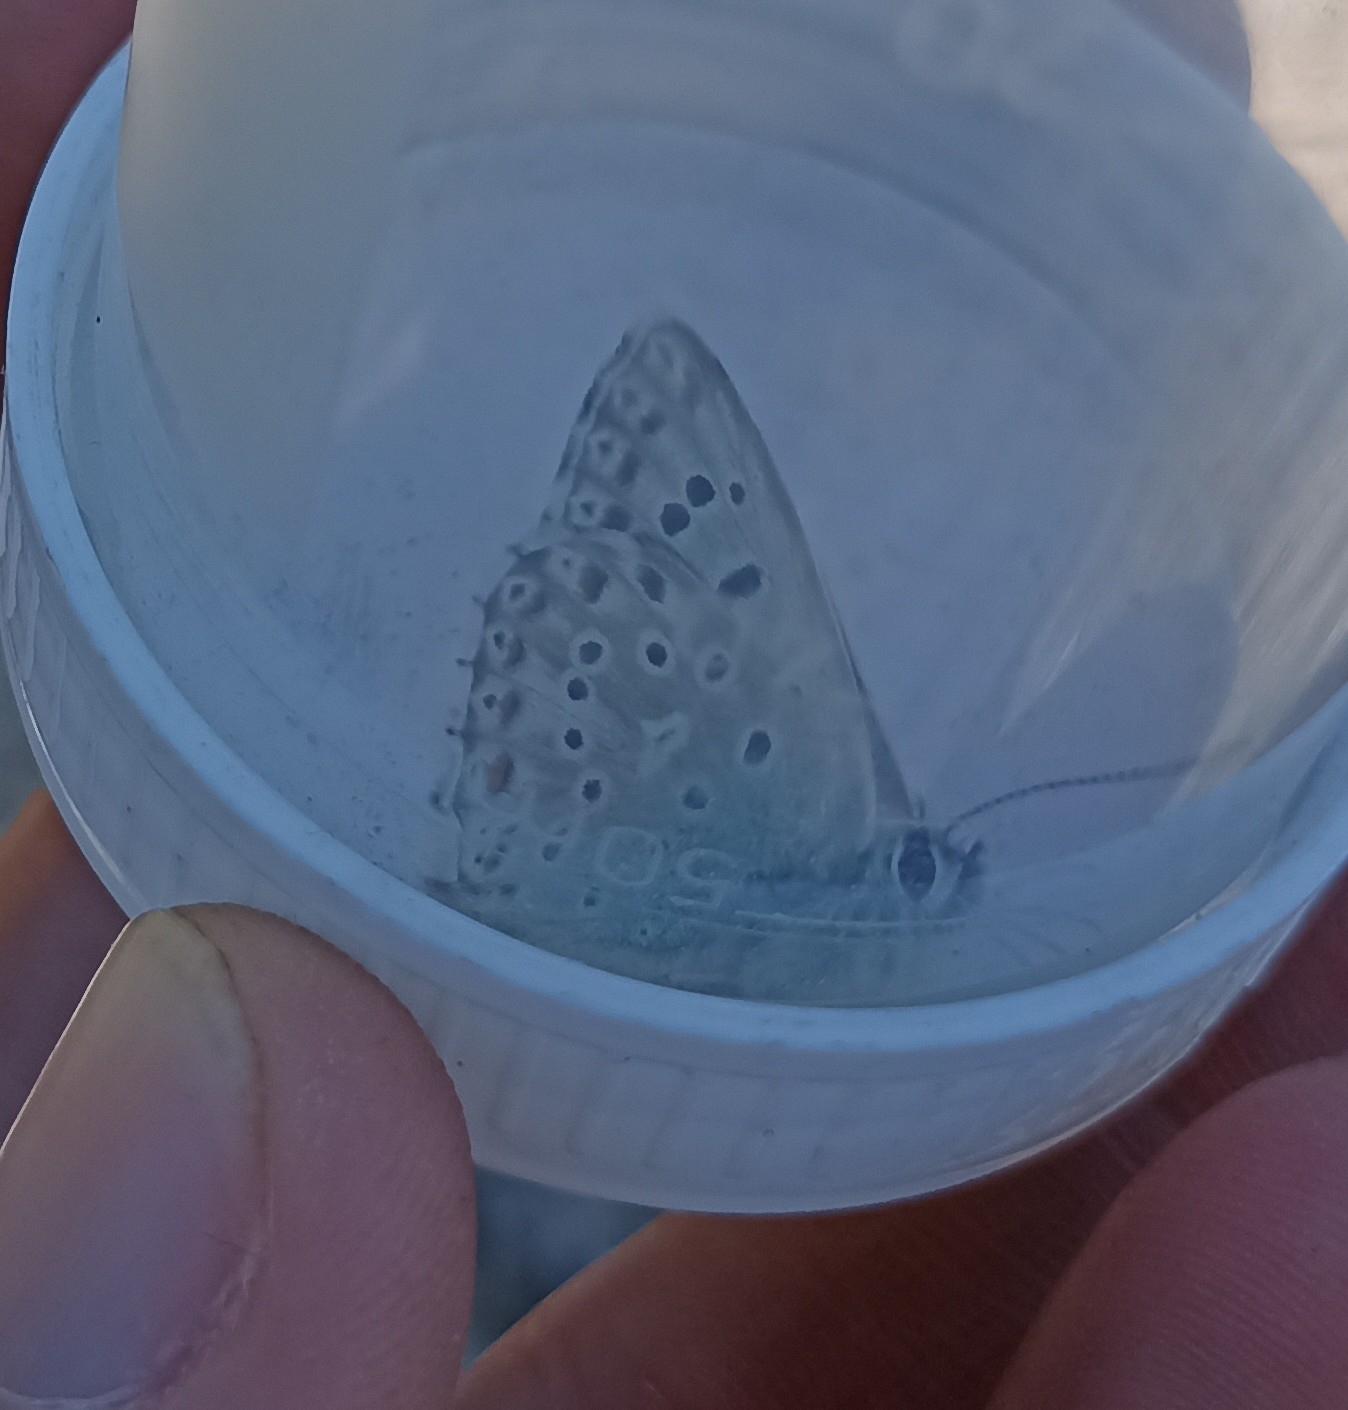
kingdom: Animalia
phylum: Arthropoda
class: Insecta
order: Lepidoptera
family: Lycaenidae
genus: Lysandra
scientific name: Lysandra hispana
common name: Provence chalkhill blue
